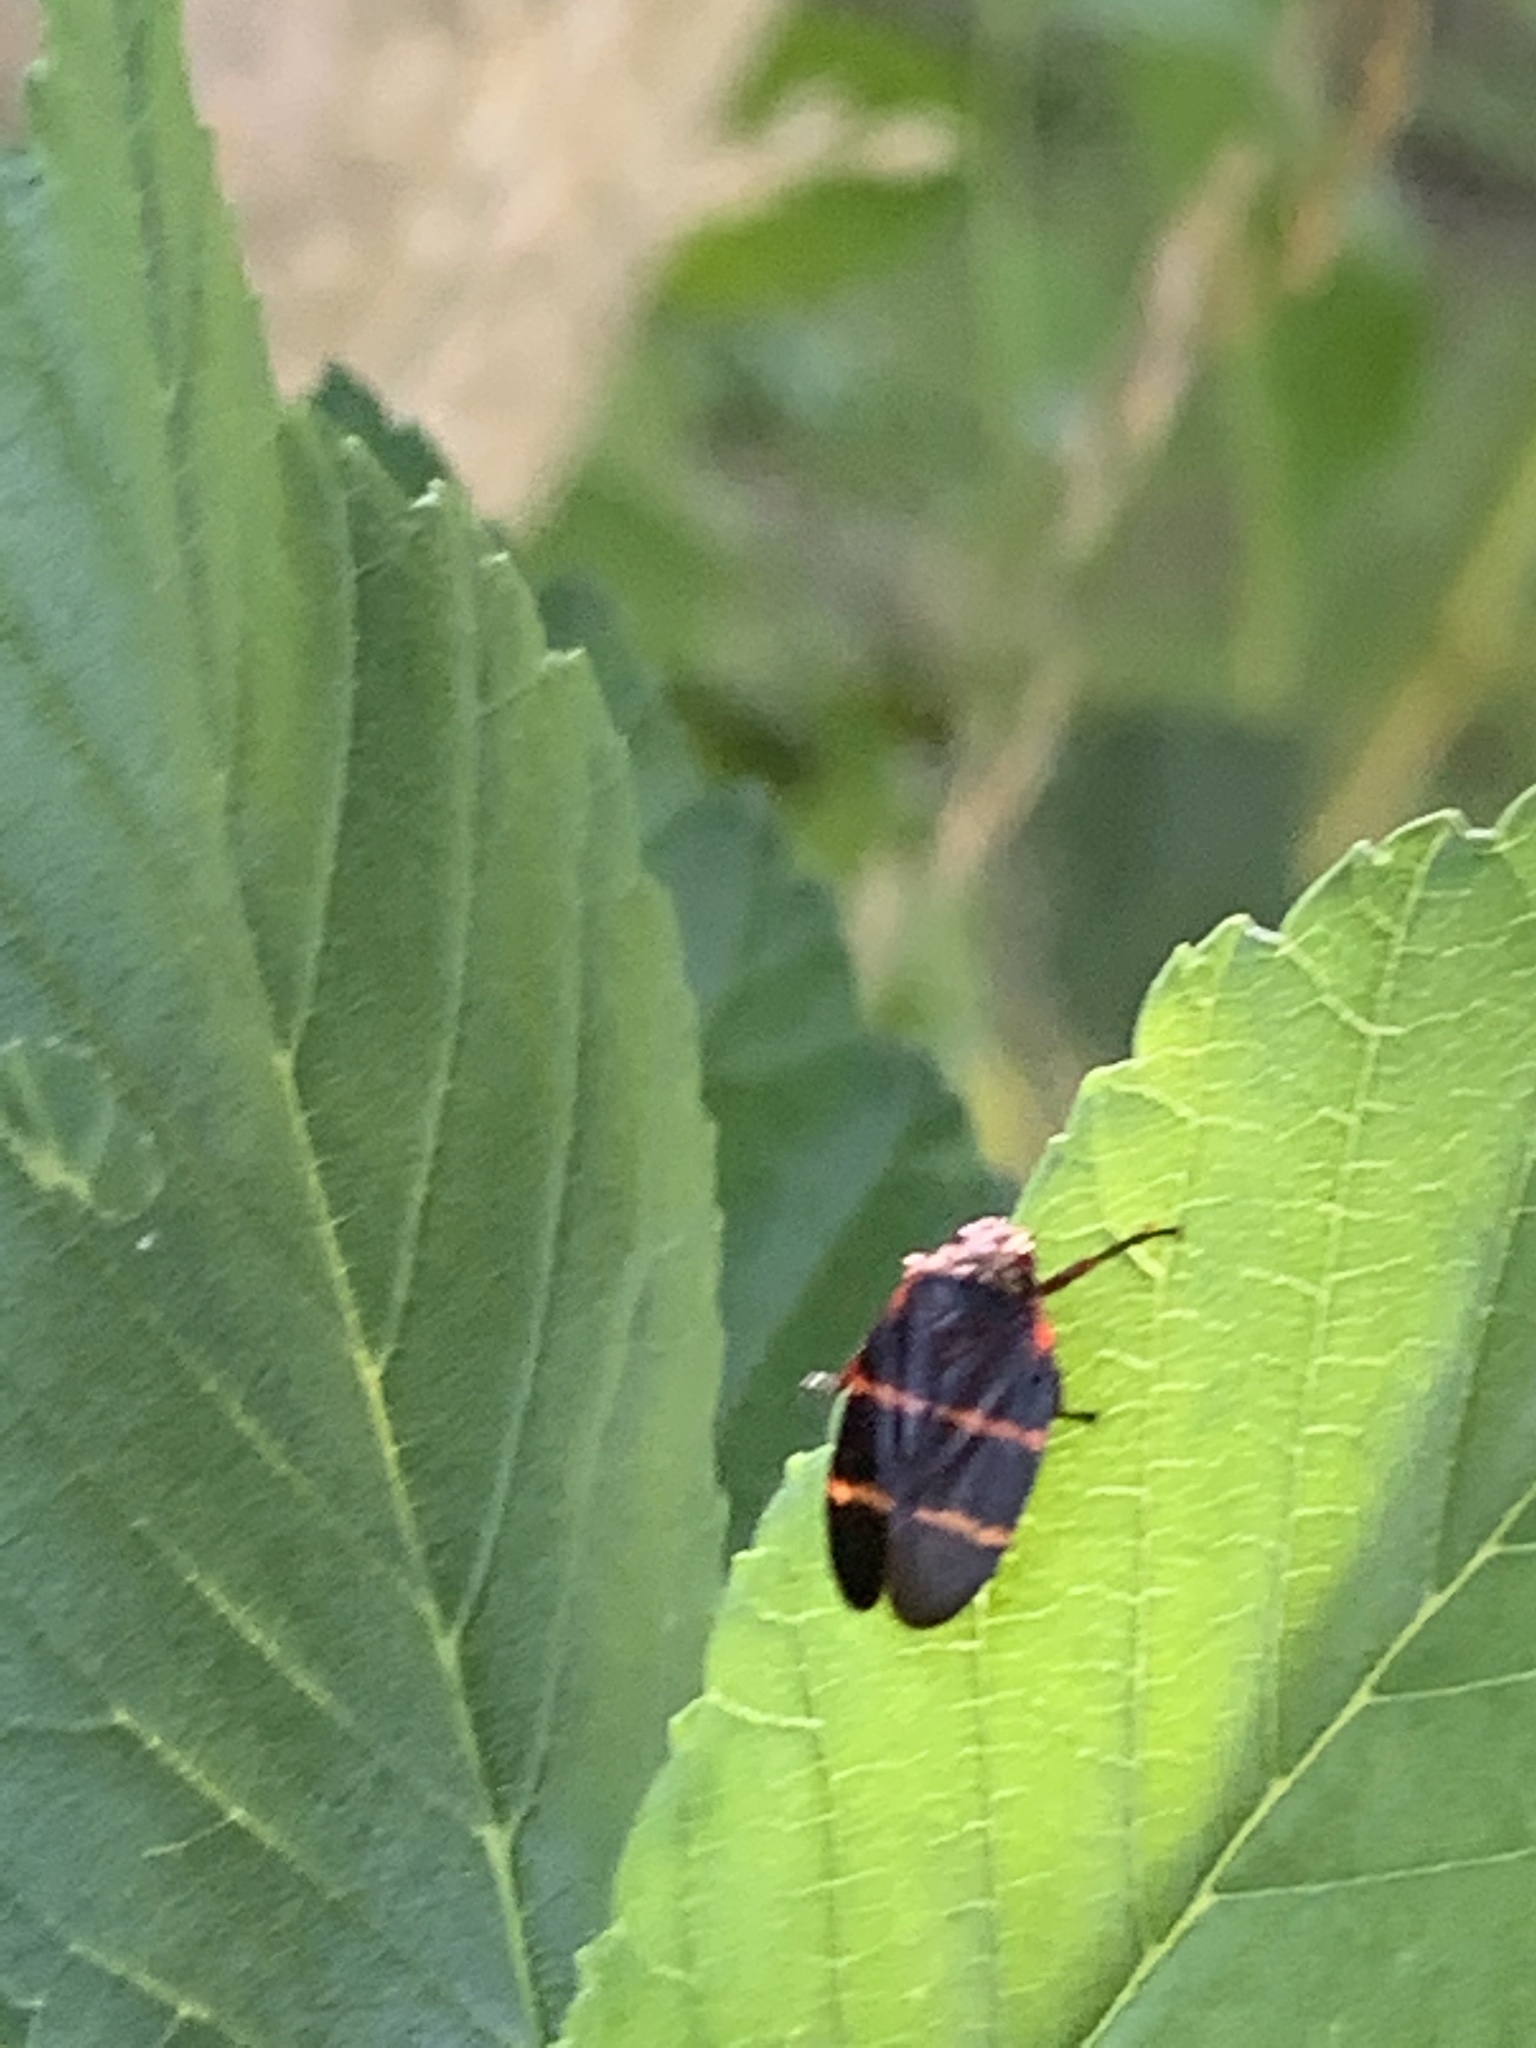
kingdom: Animalia
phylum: Arthropoda
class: Insecta
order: Hemiptera
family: Cercopidae
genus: Prosapia
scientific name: Prosapia bicincta
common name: Twolined spittlebug
